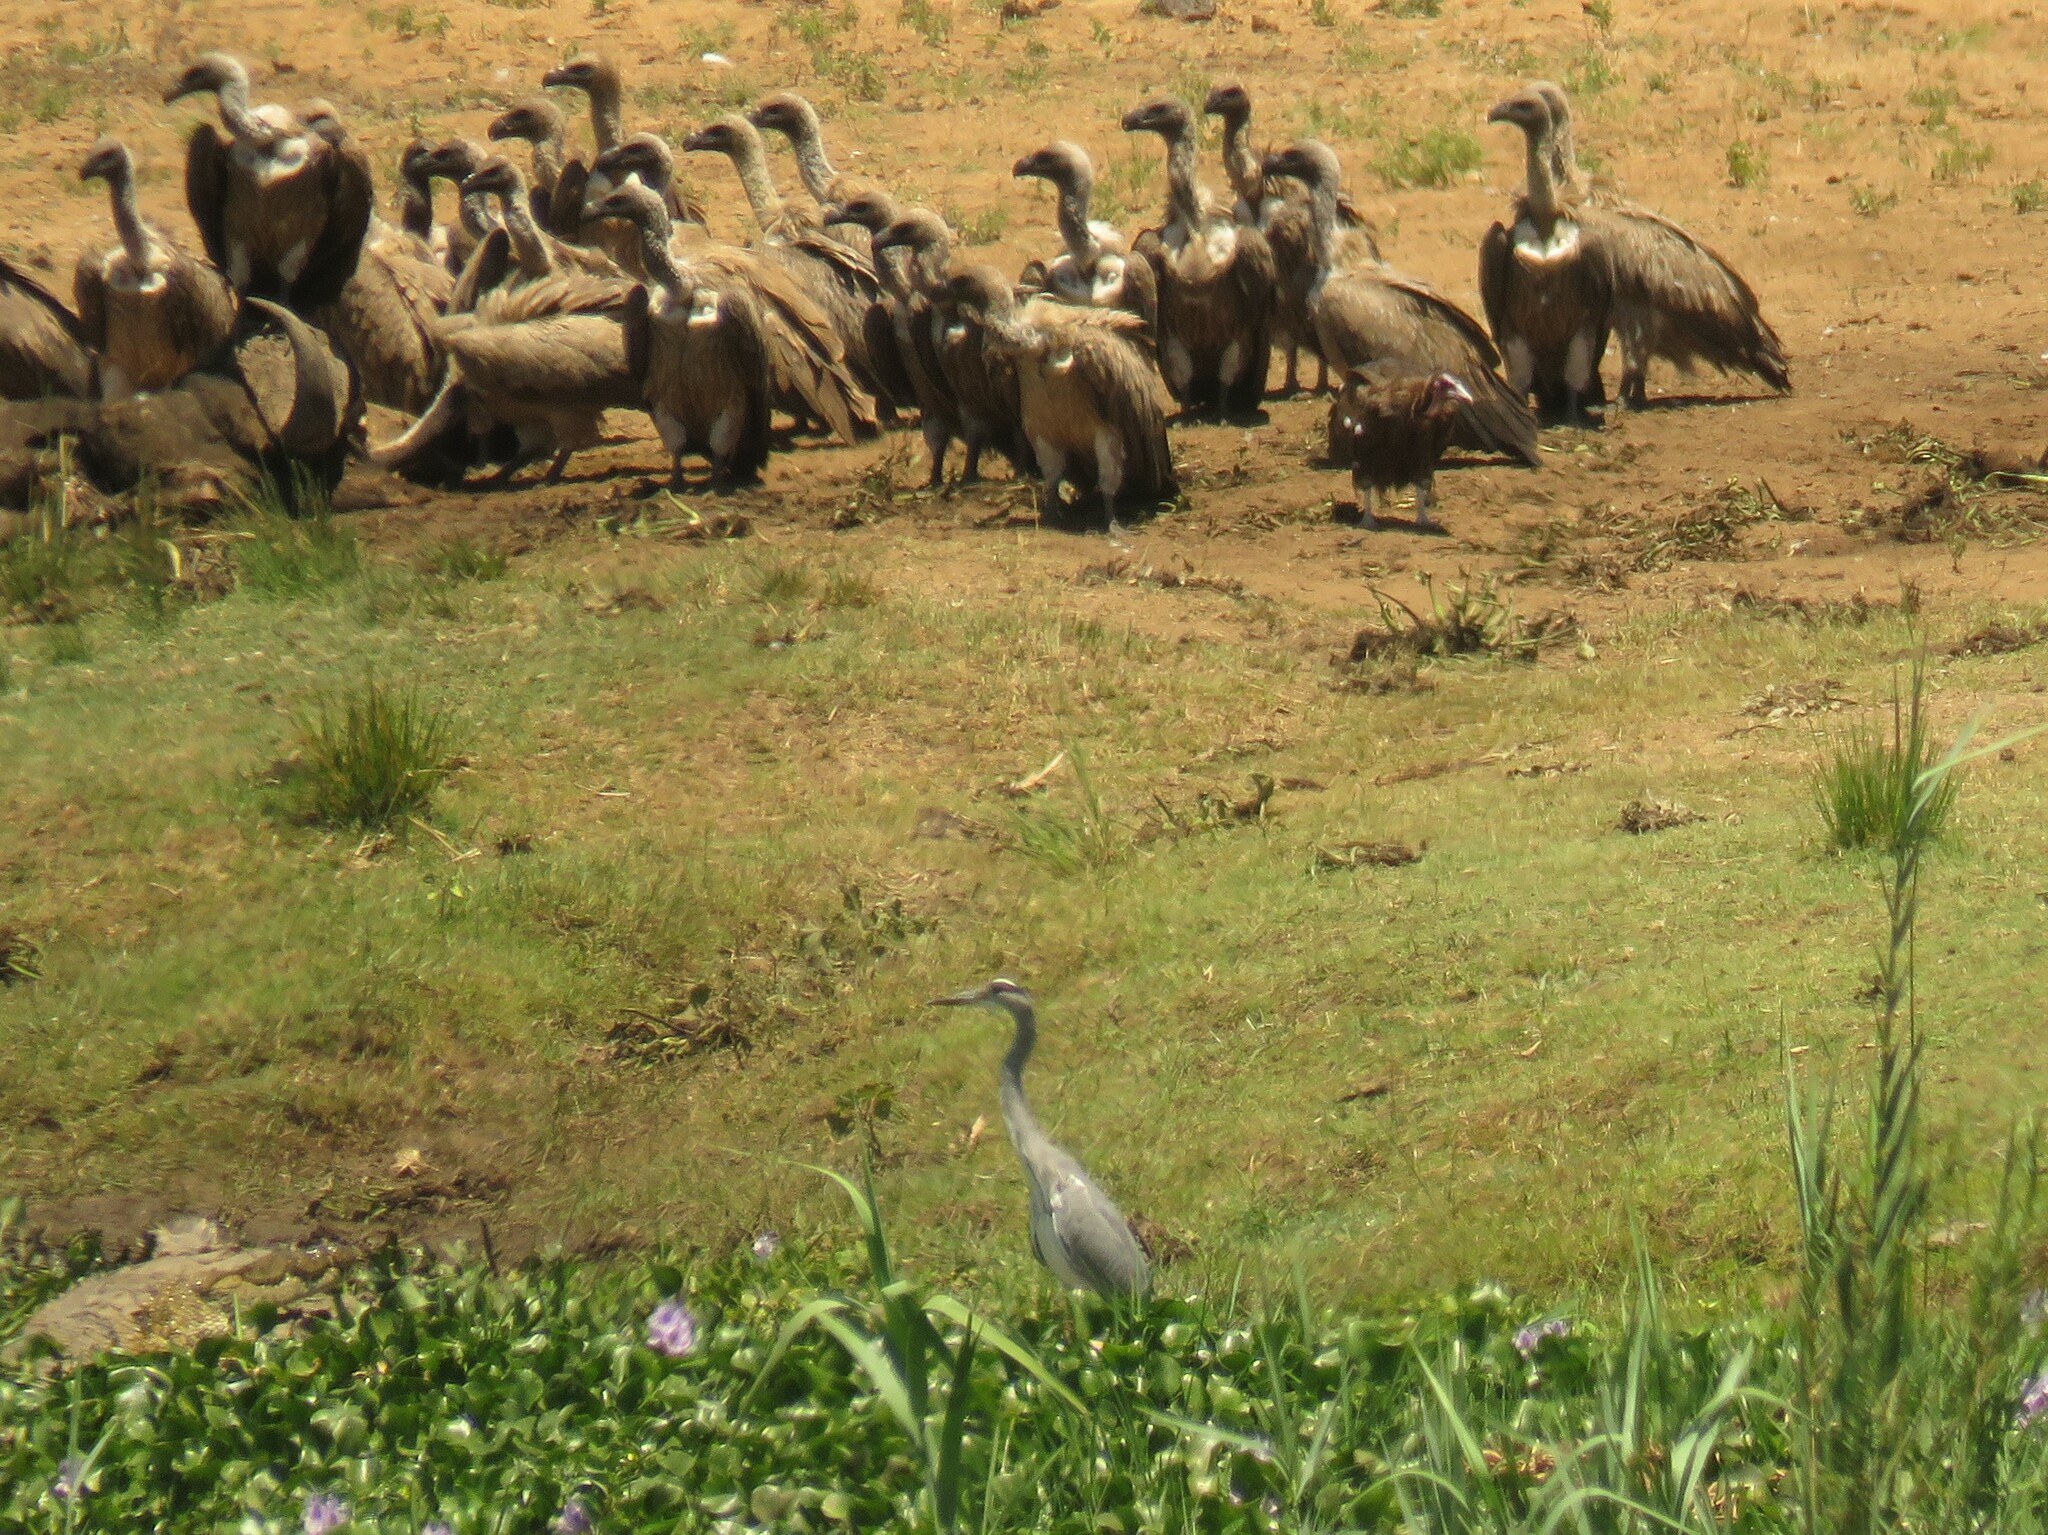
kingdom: Animalia
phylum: Chordata
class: Aves
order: Pelecaniformes
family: Ardeidae
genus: Ardea
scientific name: Ardea cinerea
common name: Grey heron
